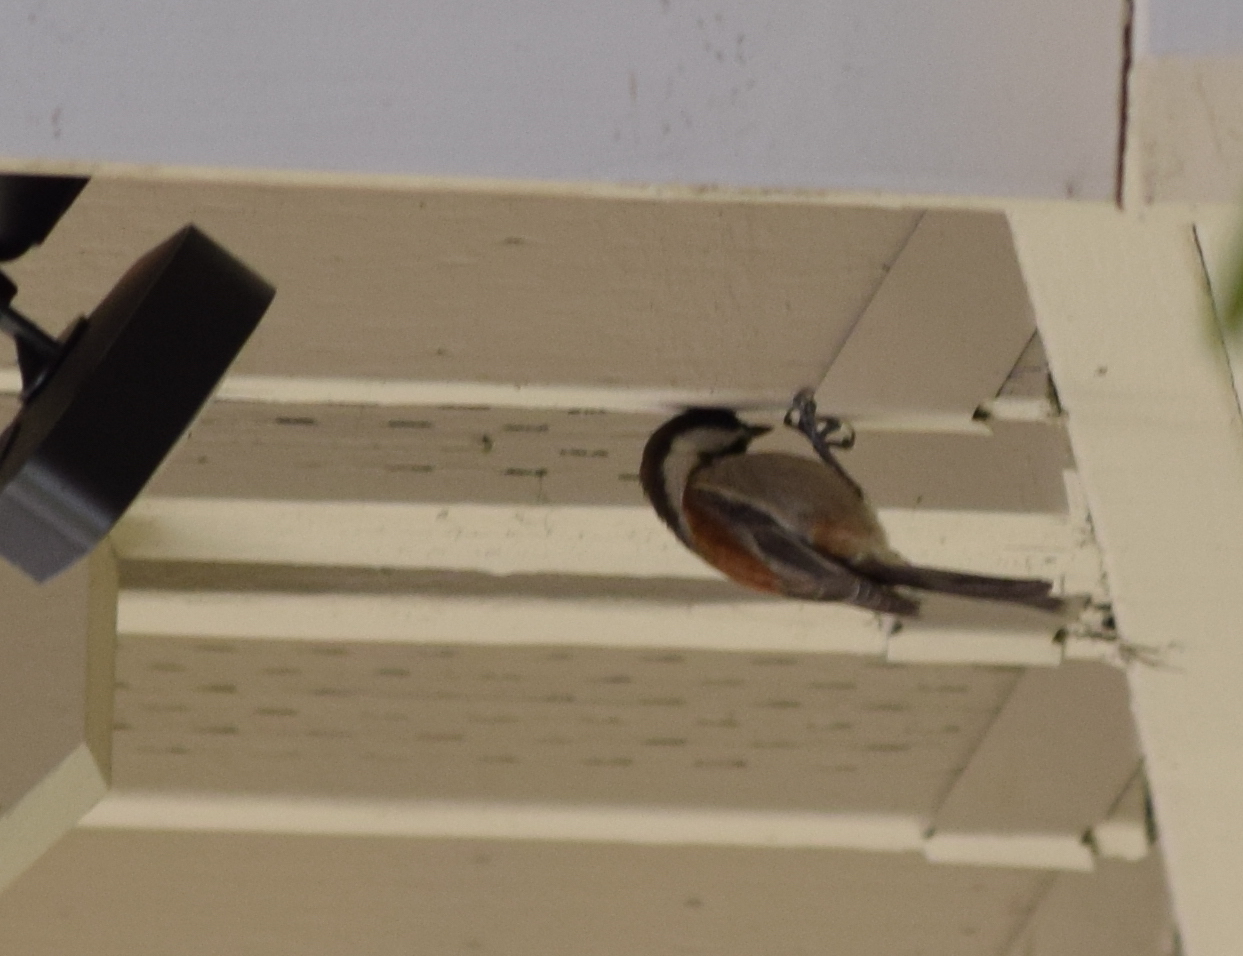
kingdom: Animalia
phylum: Chordata
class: Aves
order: Passeriformes
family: Paridae
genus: Poecile
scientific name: Poecile rufescens
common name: Chestnut-backed chickadee
